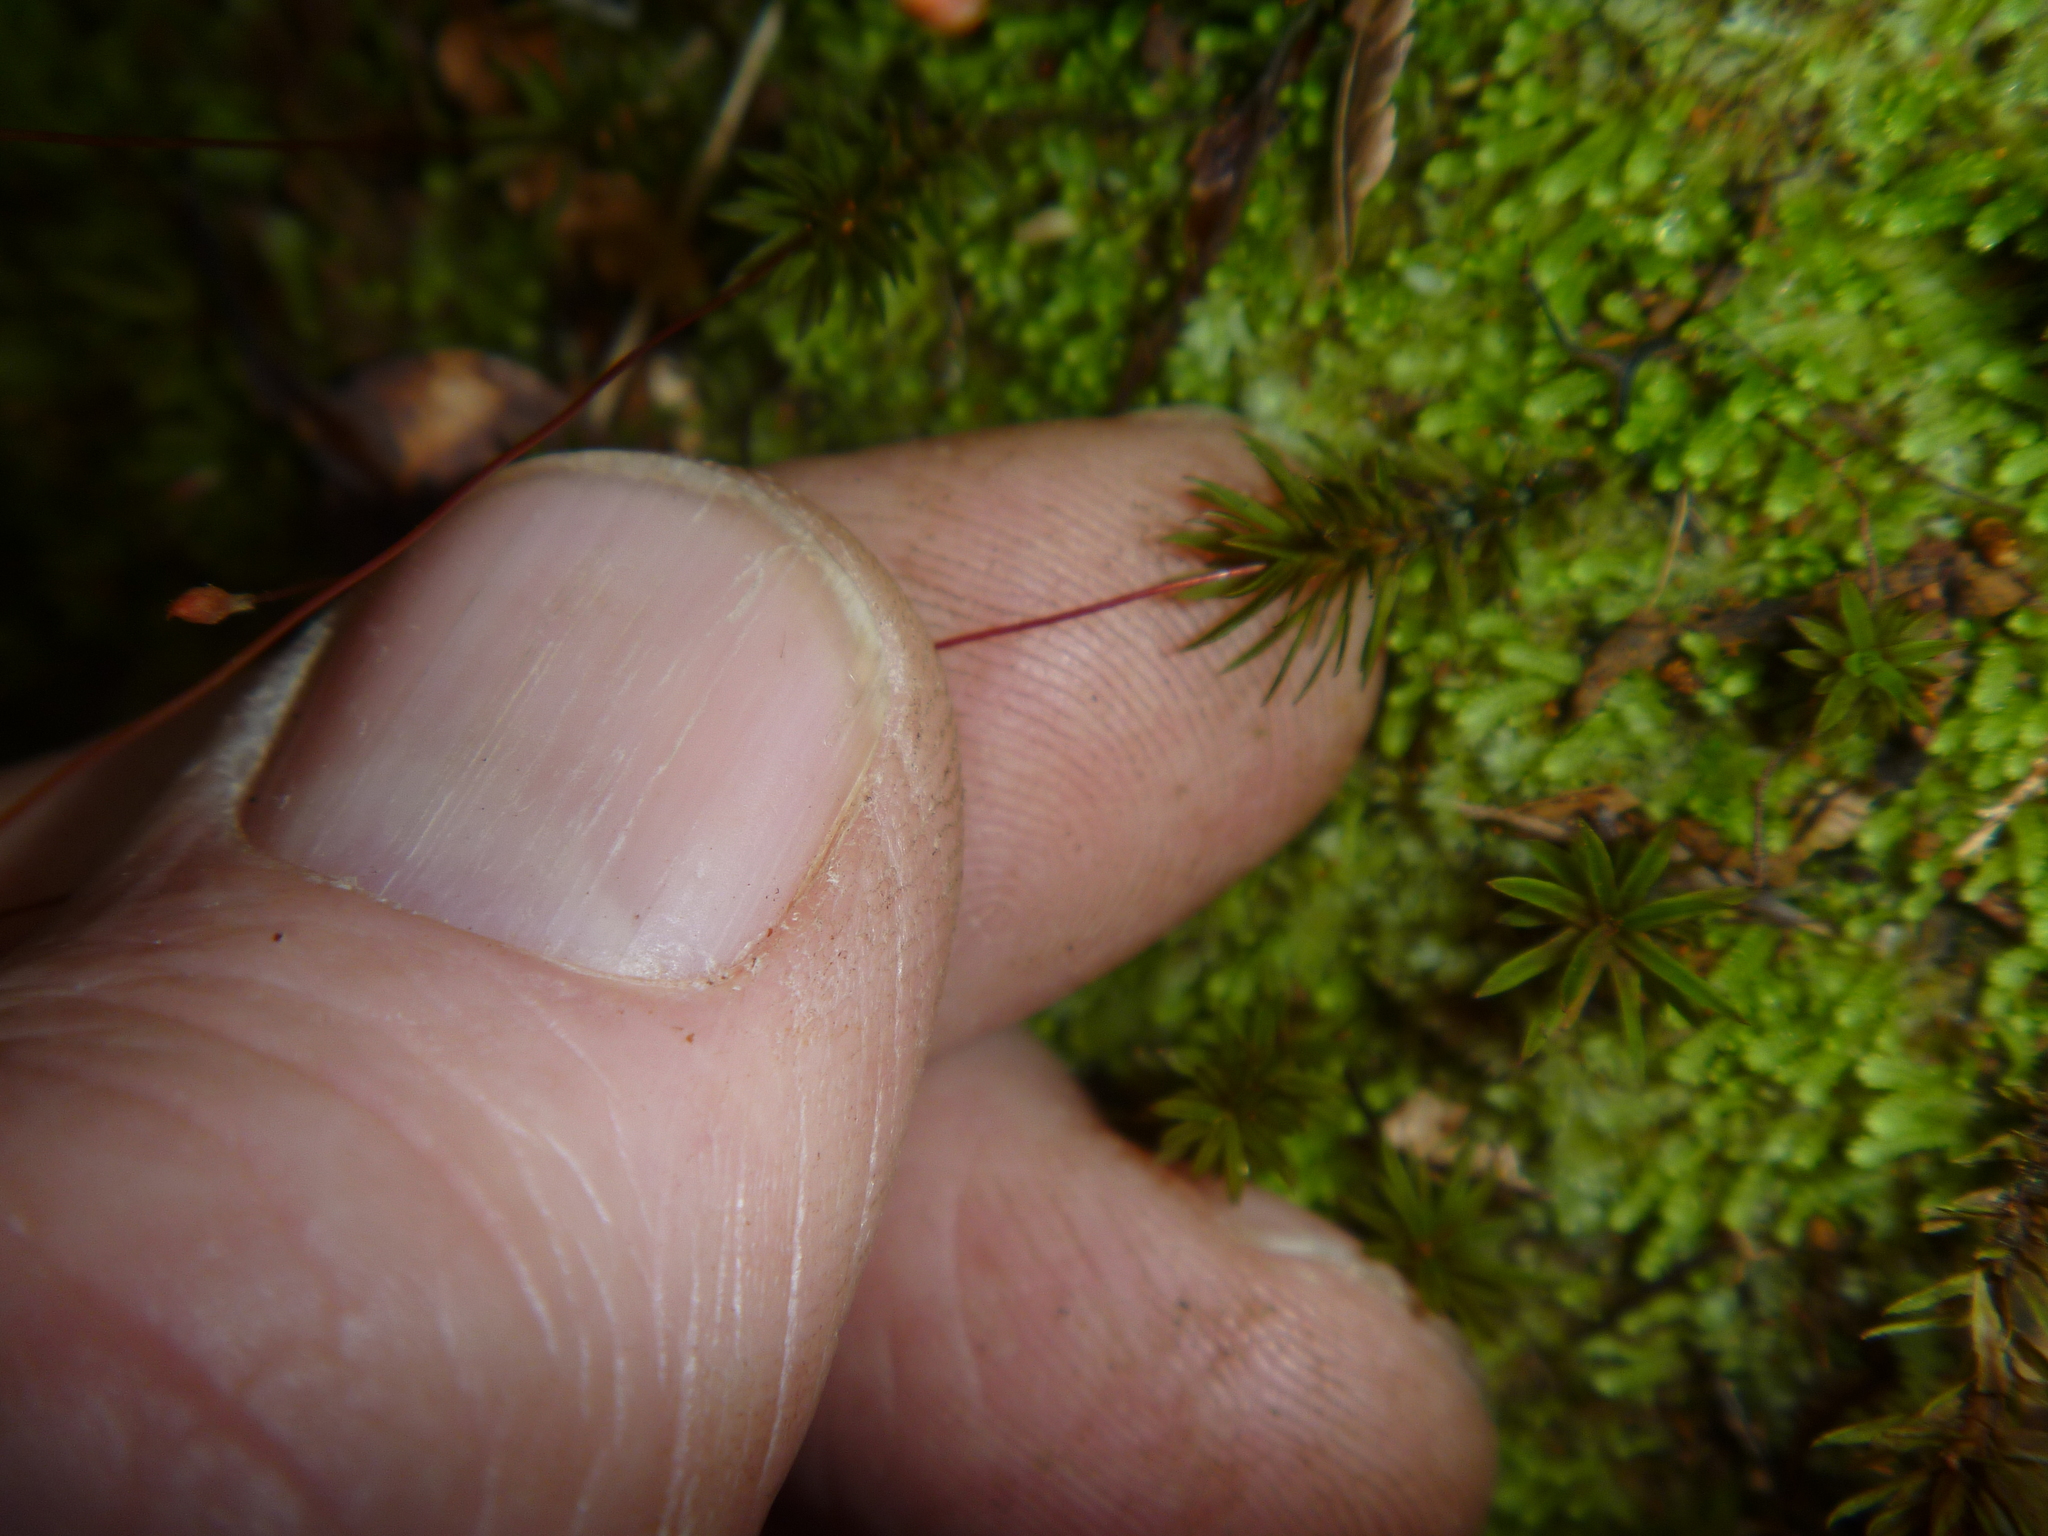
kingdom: Plantae
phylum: Bryophyta
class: Polytrichopsida
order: Polytrichales
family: Polytrichaceae
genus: Pogonatum
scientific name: Pogonatum subulatum
